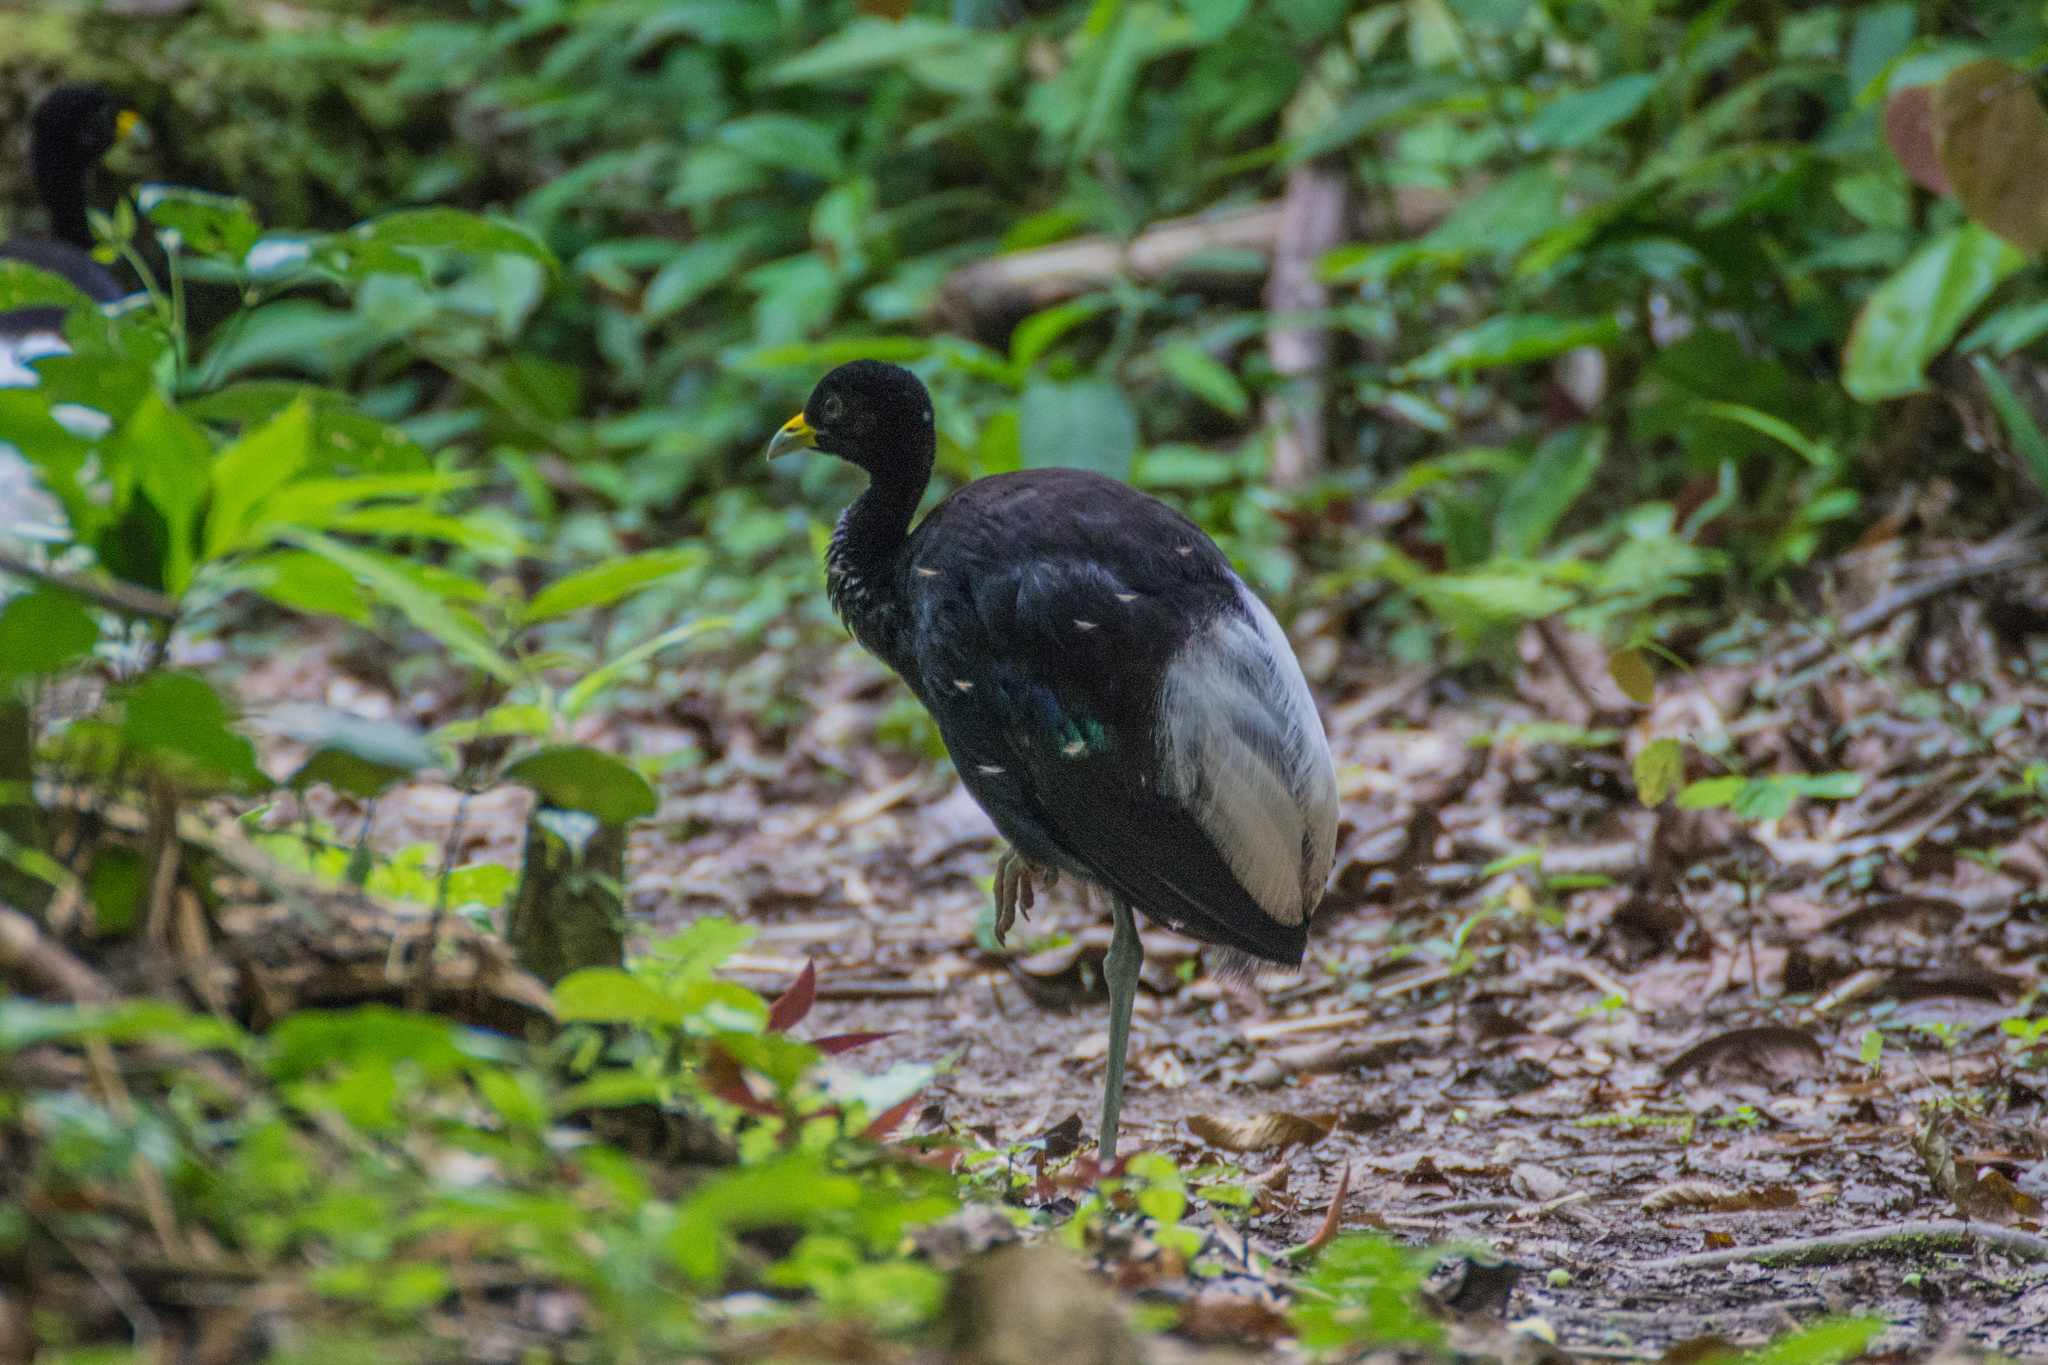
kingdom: Animalia
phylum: Chordata
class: Aves
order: Gruiformes
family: Psophiidae
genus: Psophia
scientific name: Psophia leucoptera
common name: Pale-winged trumpeter
